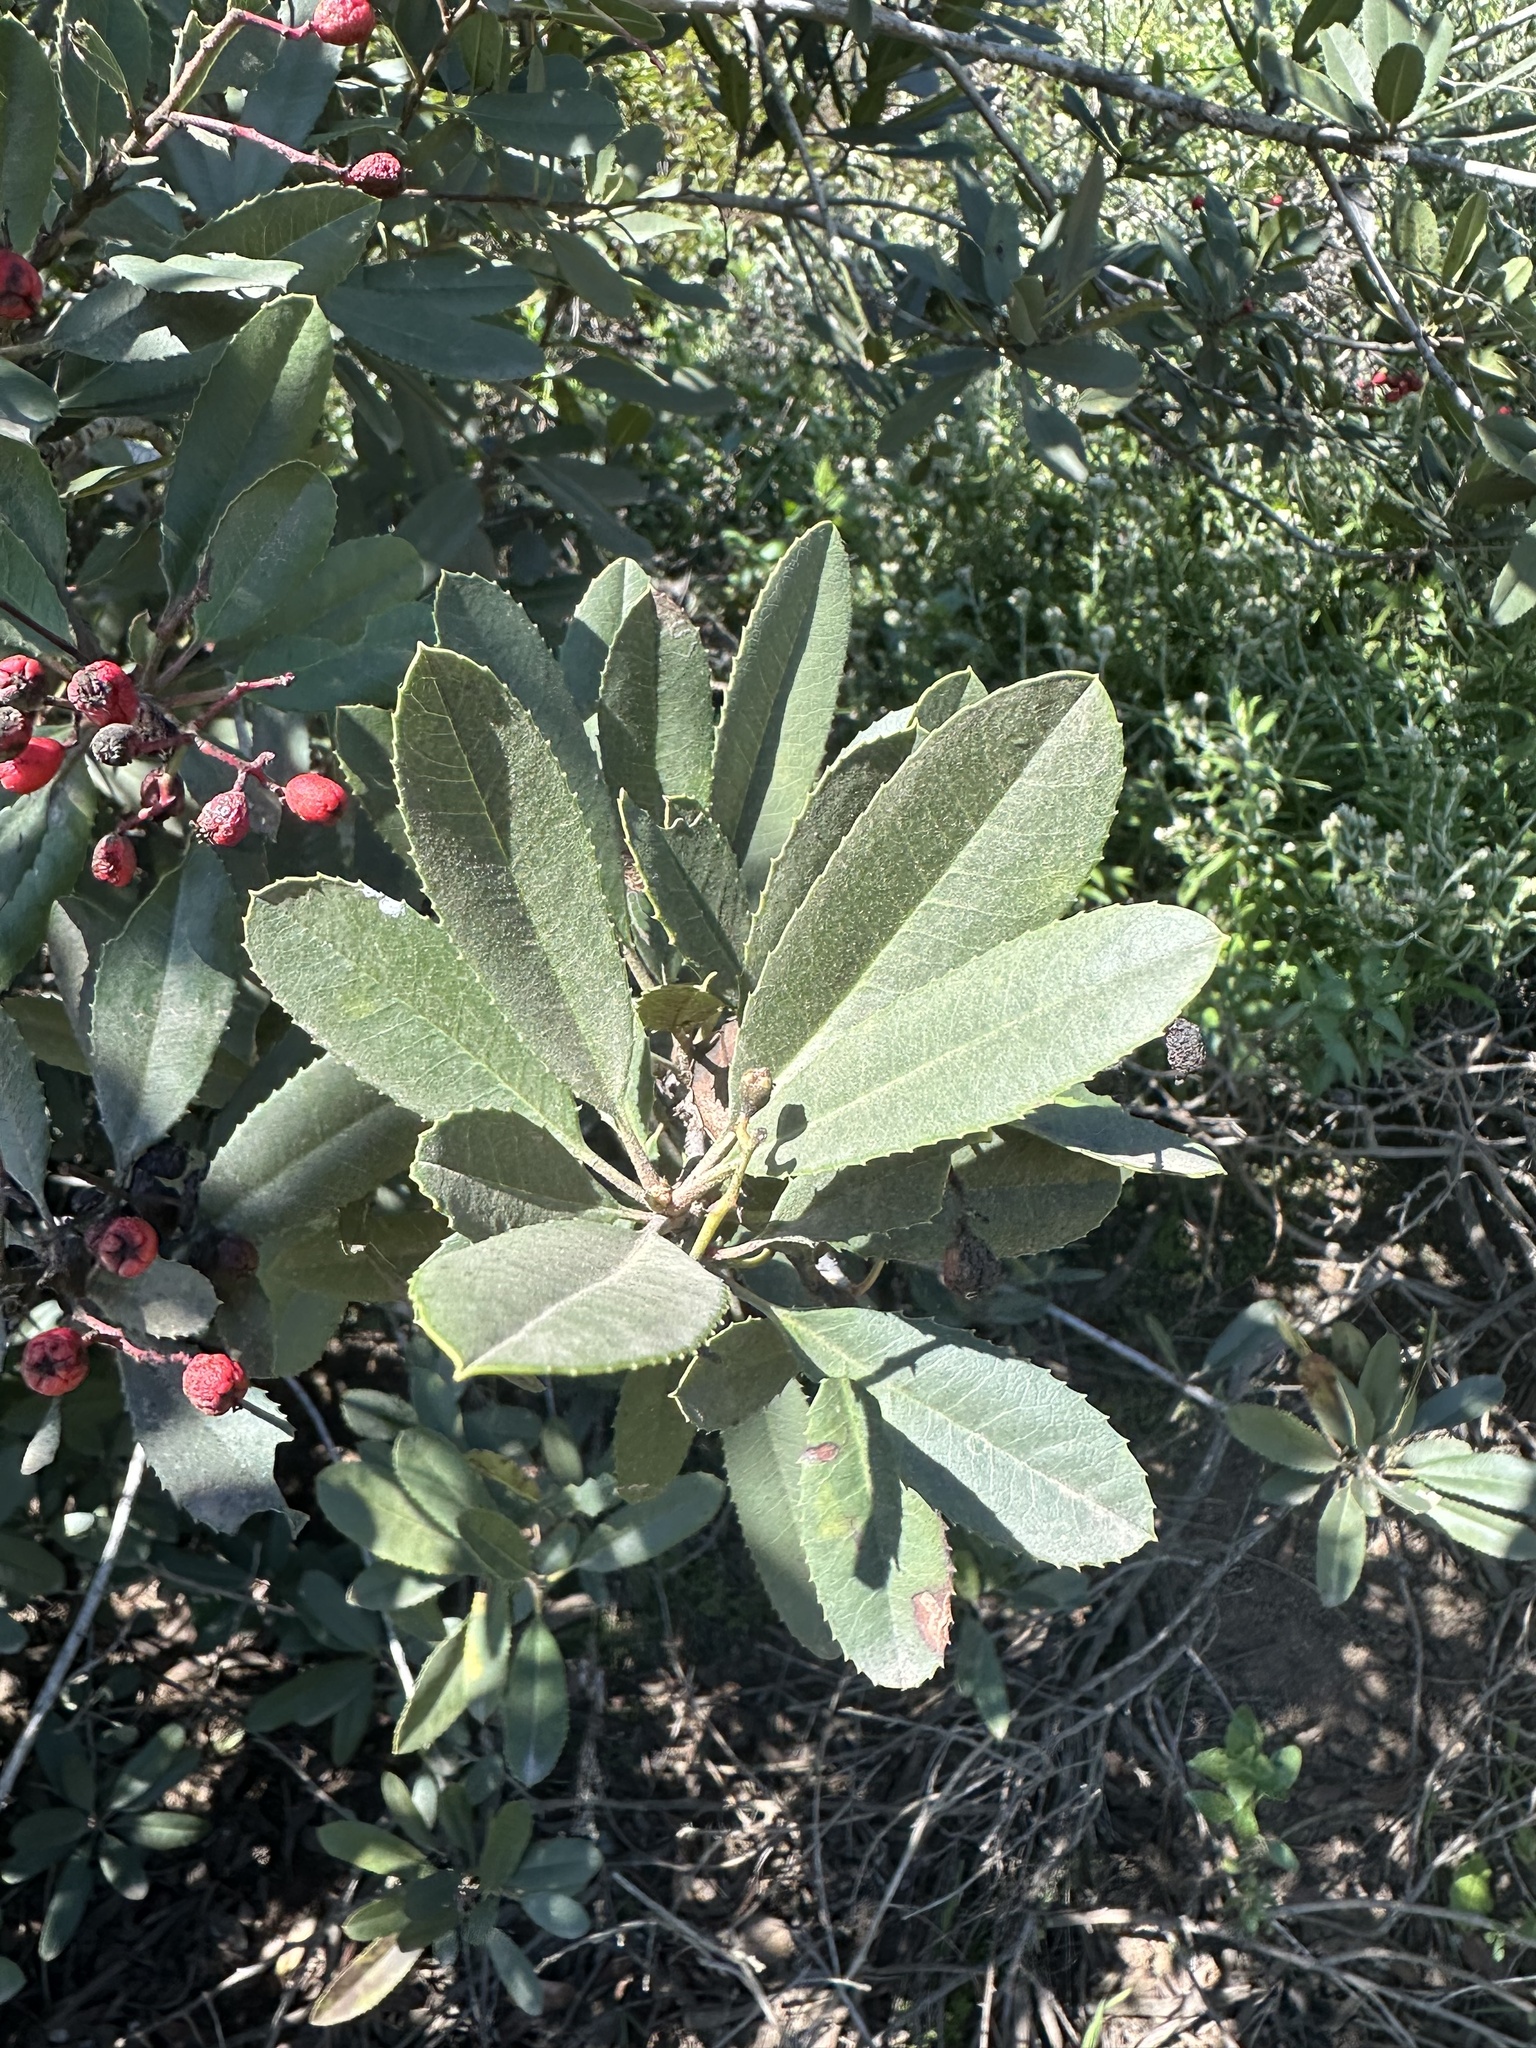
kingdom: Plantae
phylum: Tracheophyta
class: Magnoliopsida
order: Rosales
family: Rosaceae
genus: Heteromeles
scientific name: Heteromeles arbutifolia
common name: California-holly
